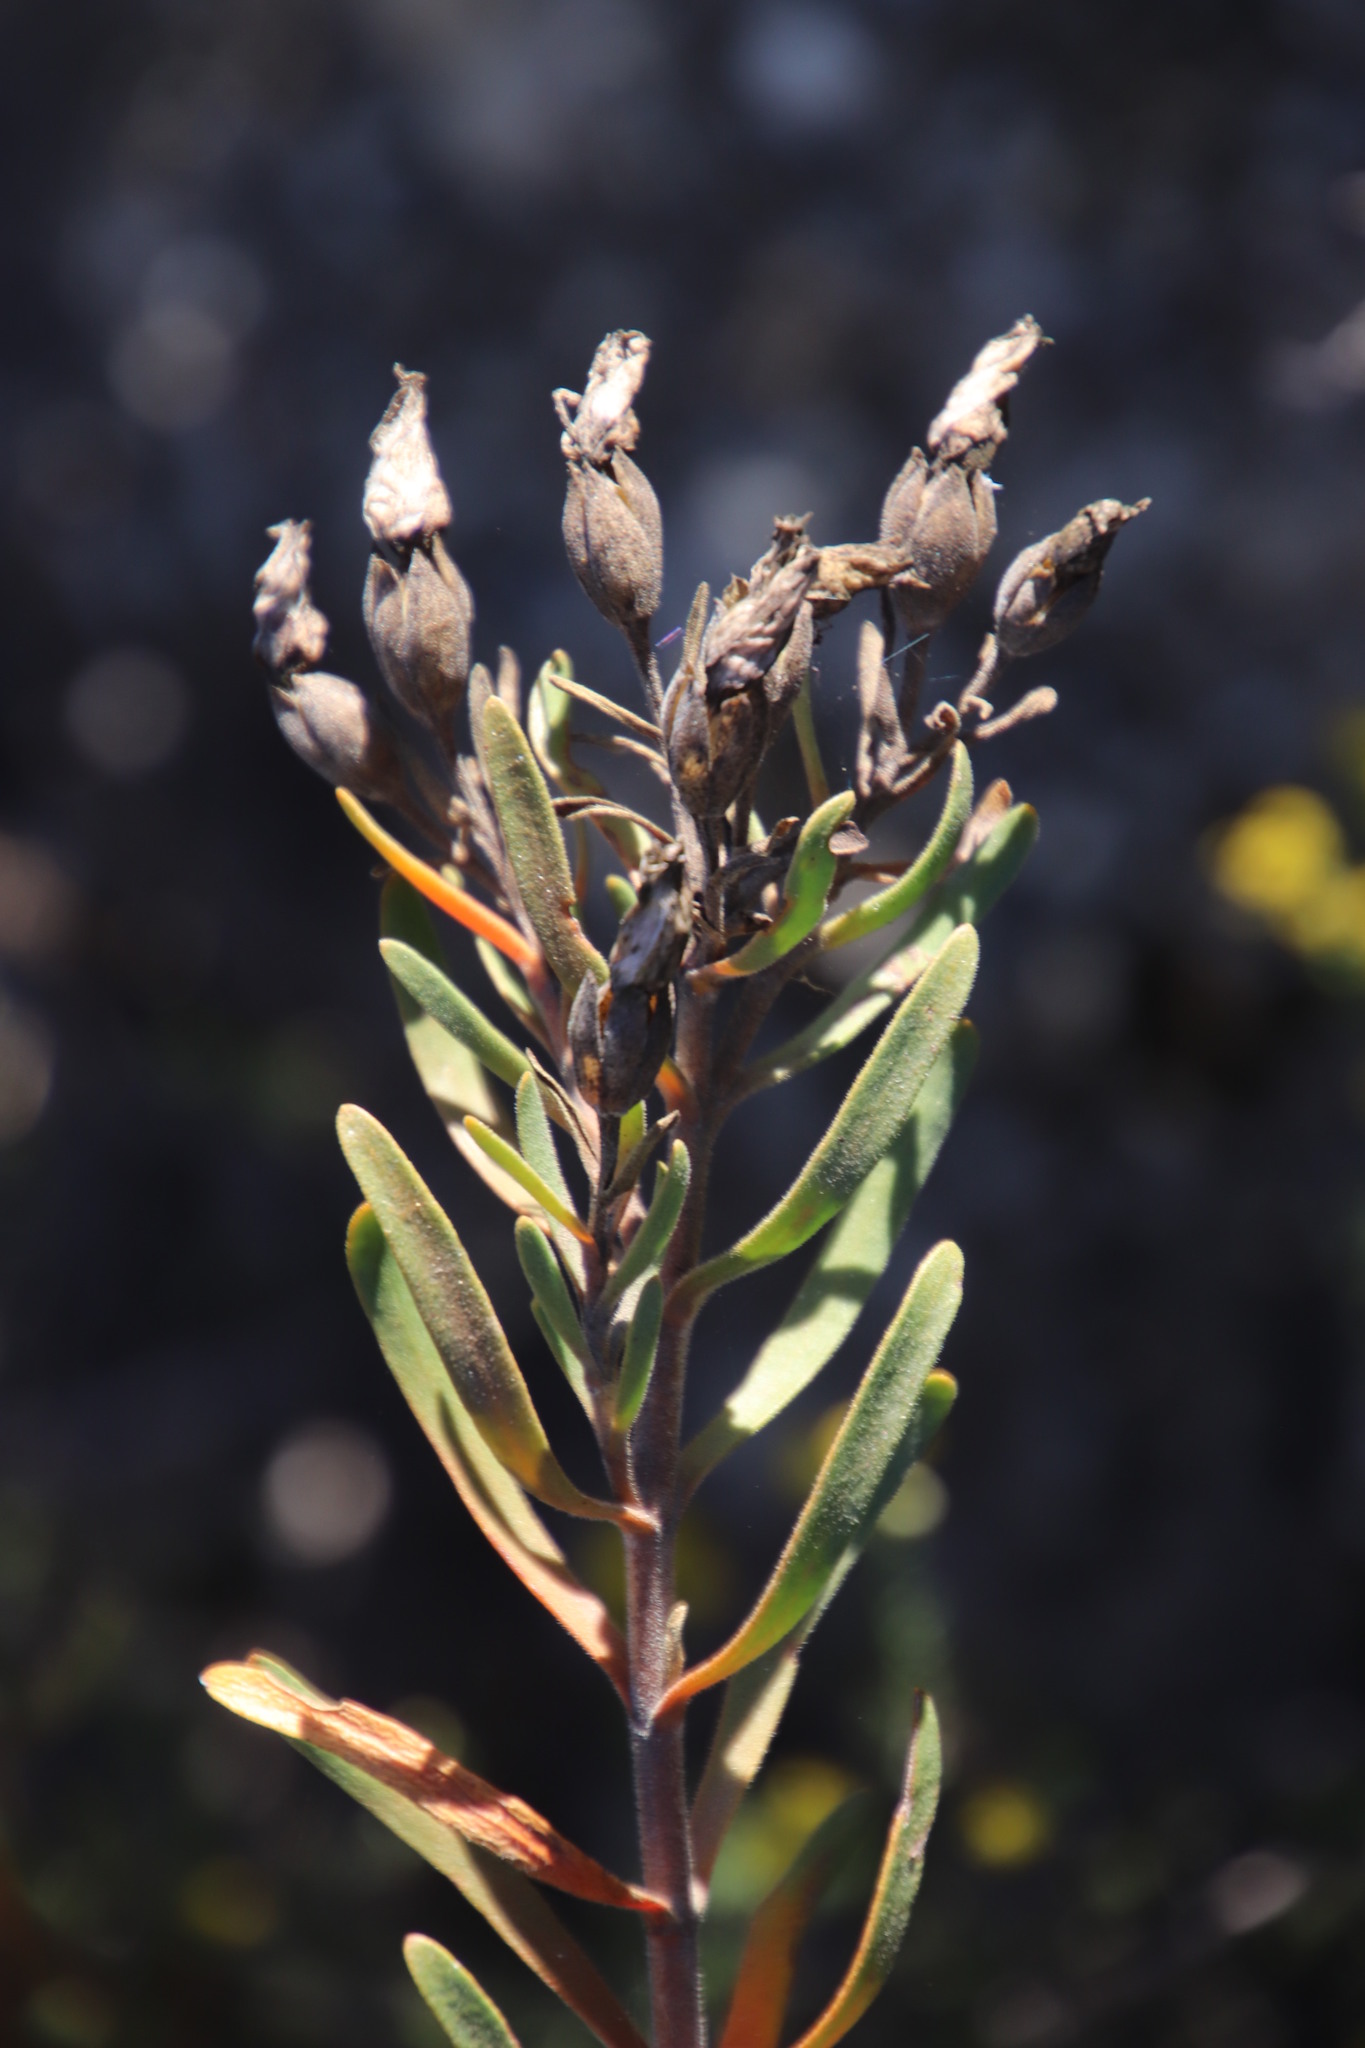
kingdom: Plantae
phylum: Tracheophyta
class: Magnoliopsida
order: Gentianales
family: Gentianaceae
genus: Orphium
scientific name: Orphium frutescens
